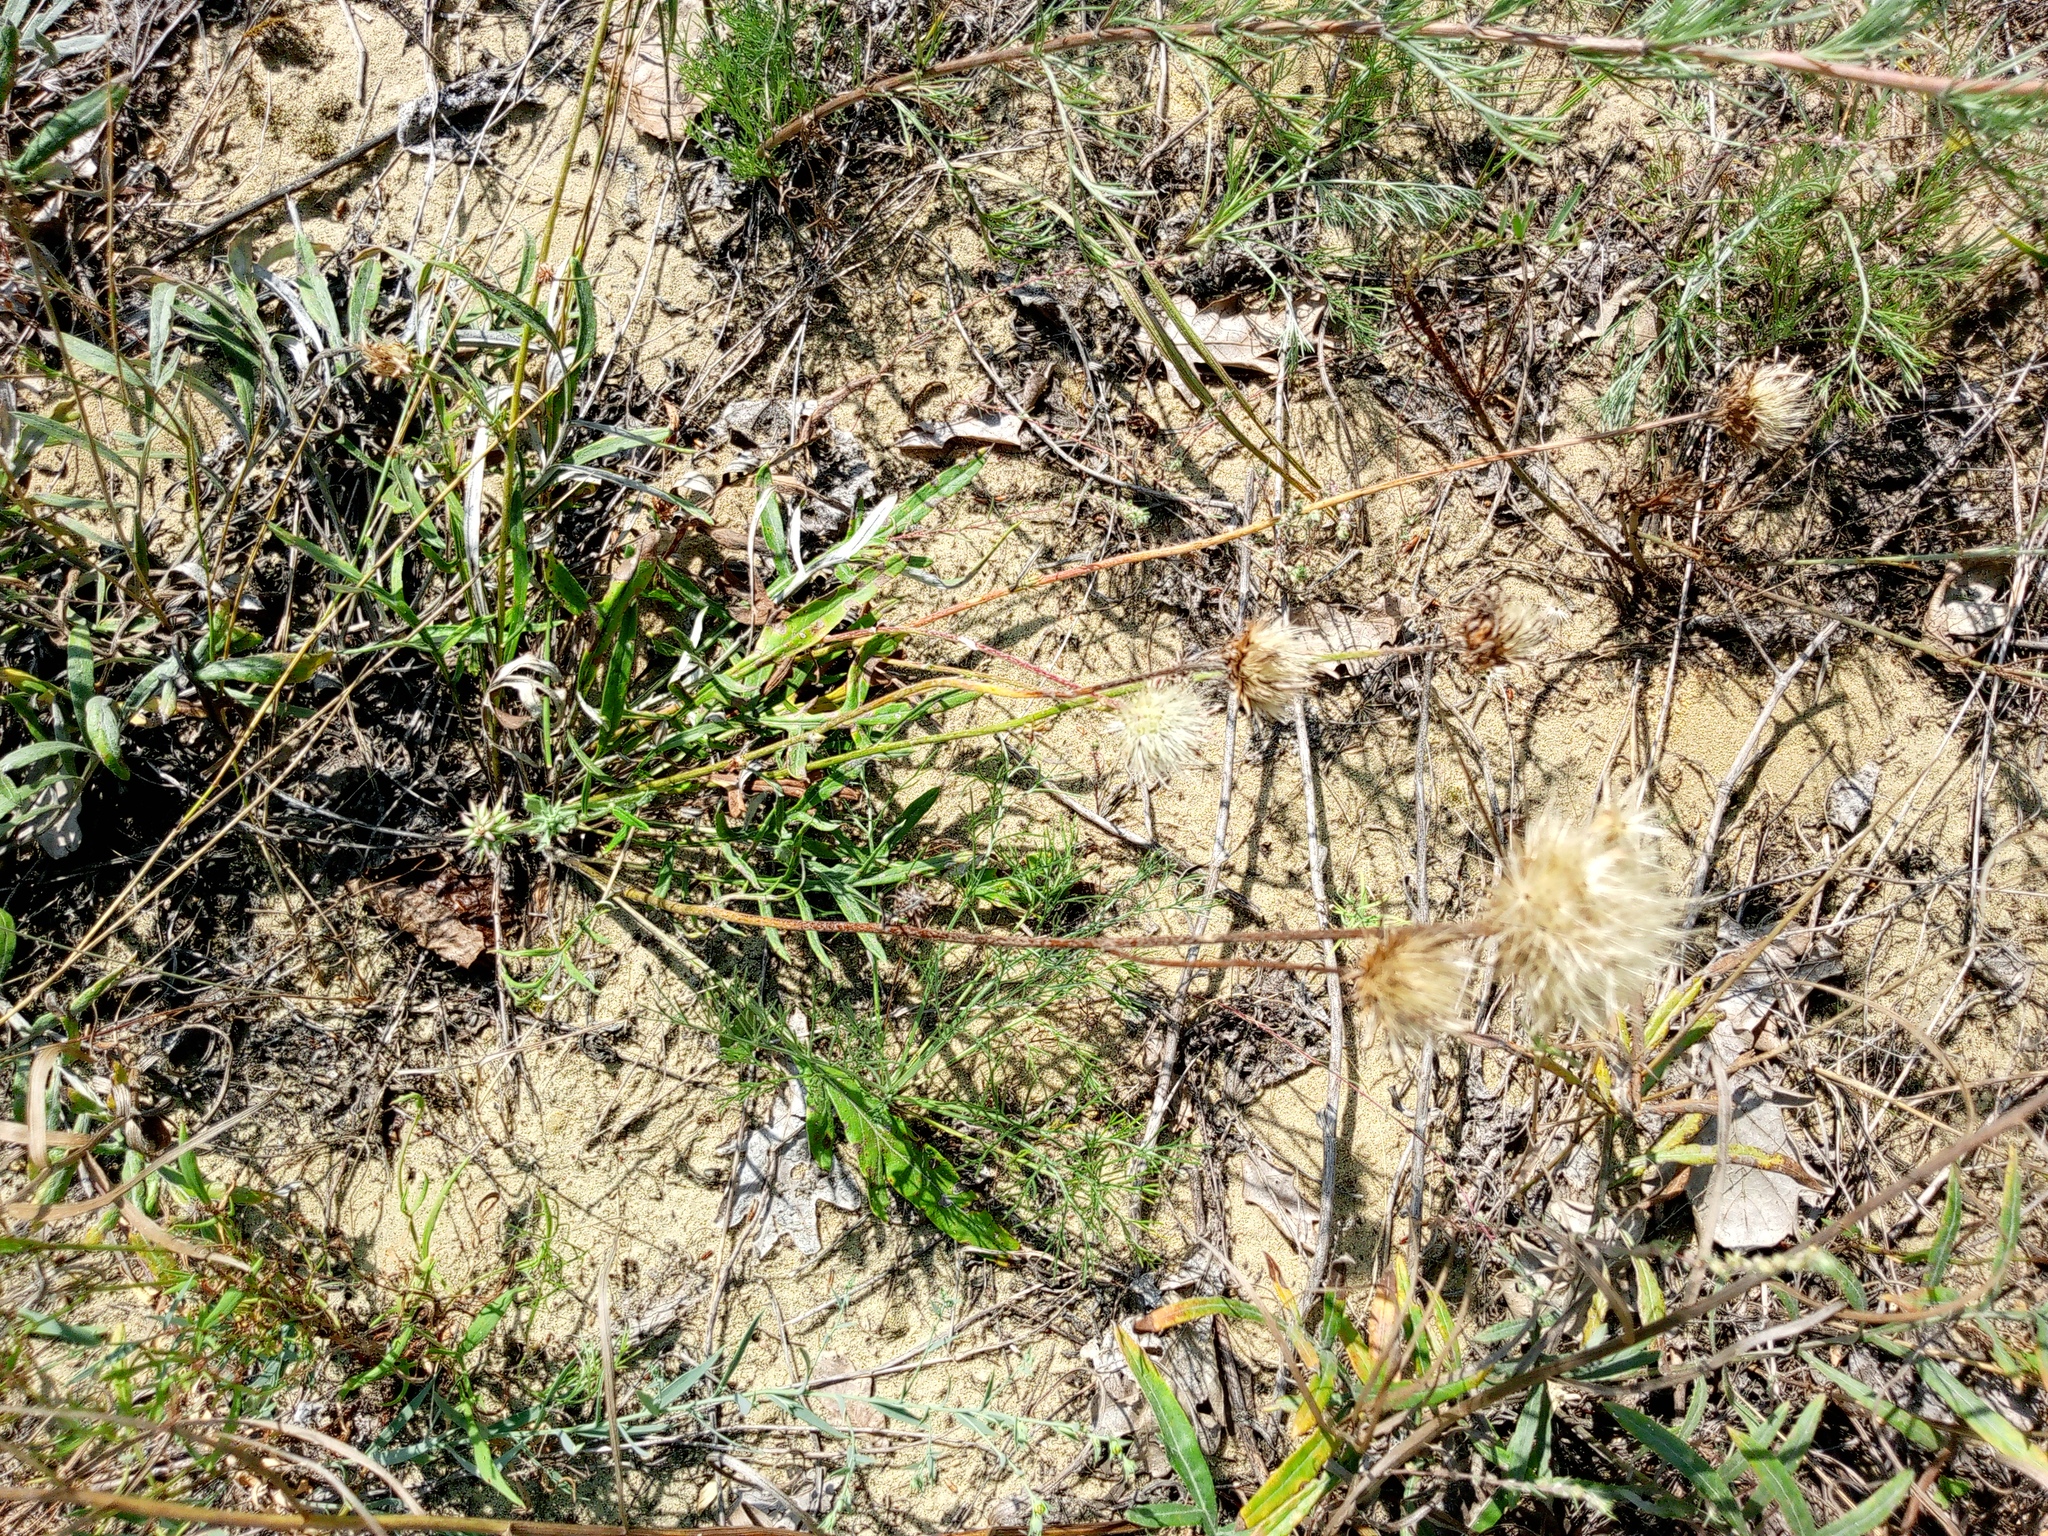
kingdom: Plantae
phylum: Tracheophyta
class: Magnoliopsida
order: Asterales
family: Asteraceae
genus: Jurinea
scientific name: Jurinea cyanoides
